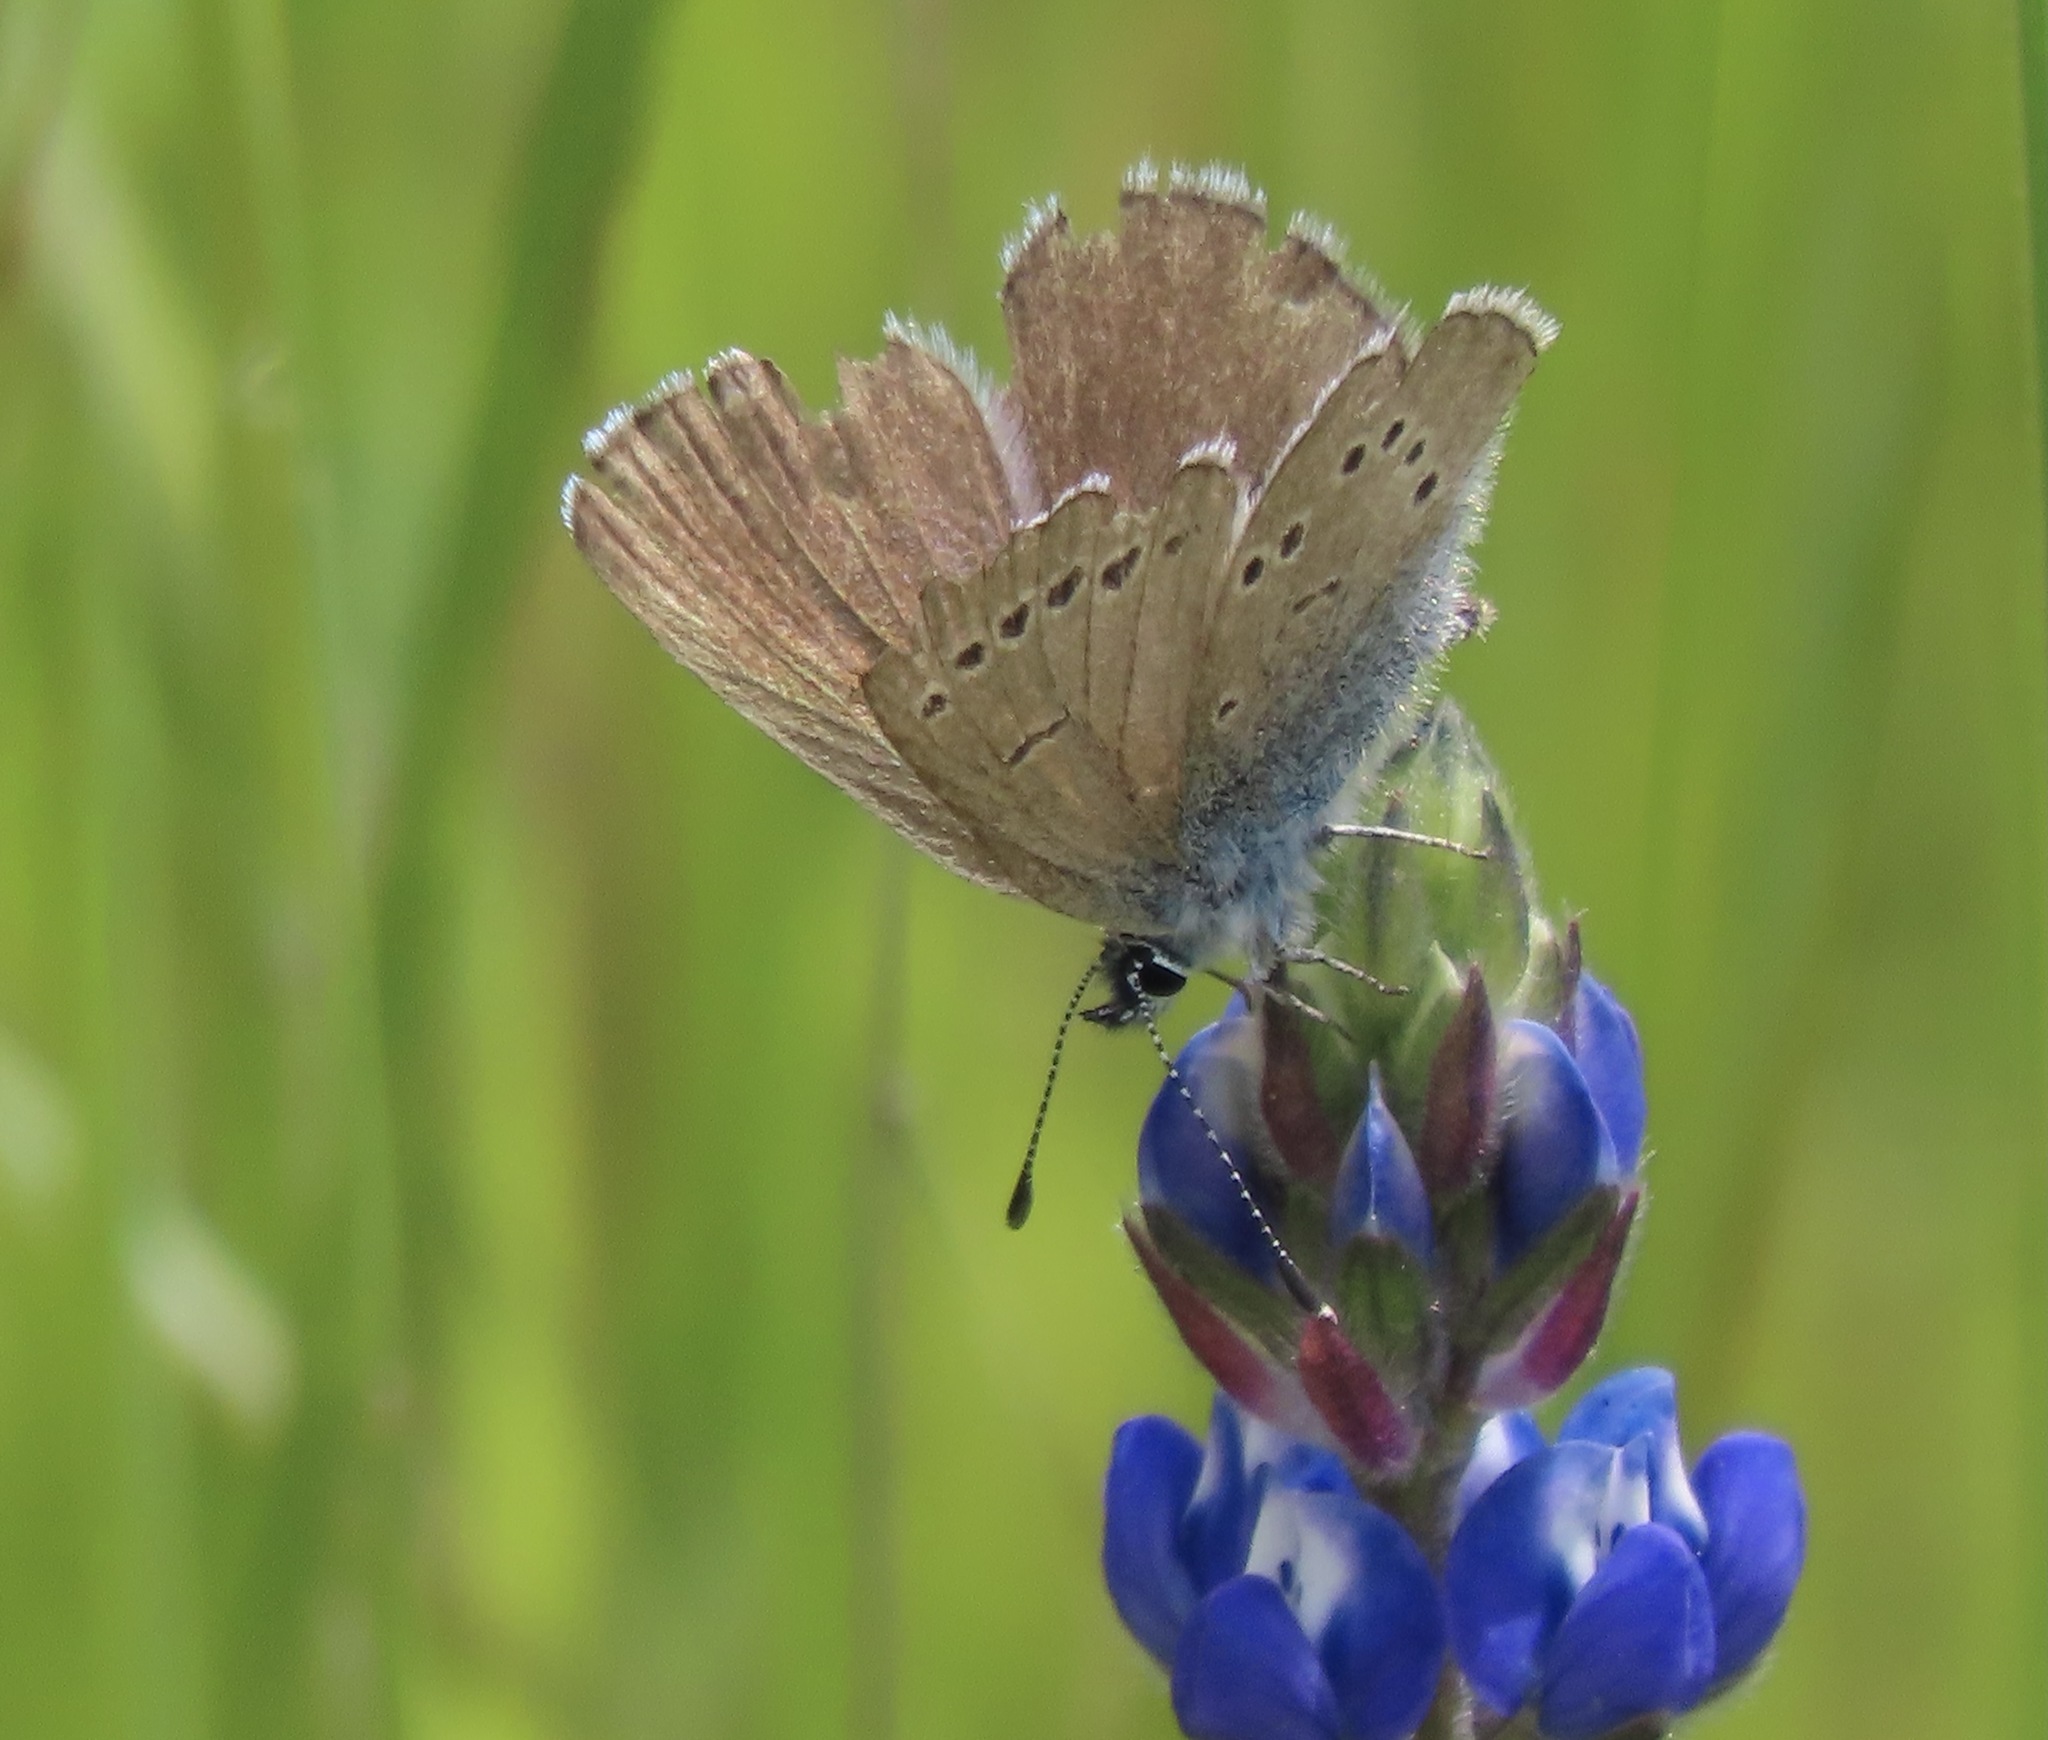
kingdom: Animalia
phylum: Arthropoda
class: Insecta
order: Lepidoptera
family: Lycaenidae
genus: Glaucopsyche
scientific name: Glaucopsyche lygdamus
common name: Silvery blue
